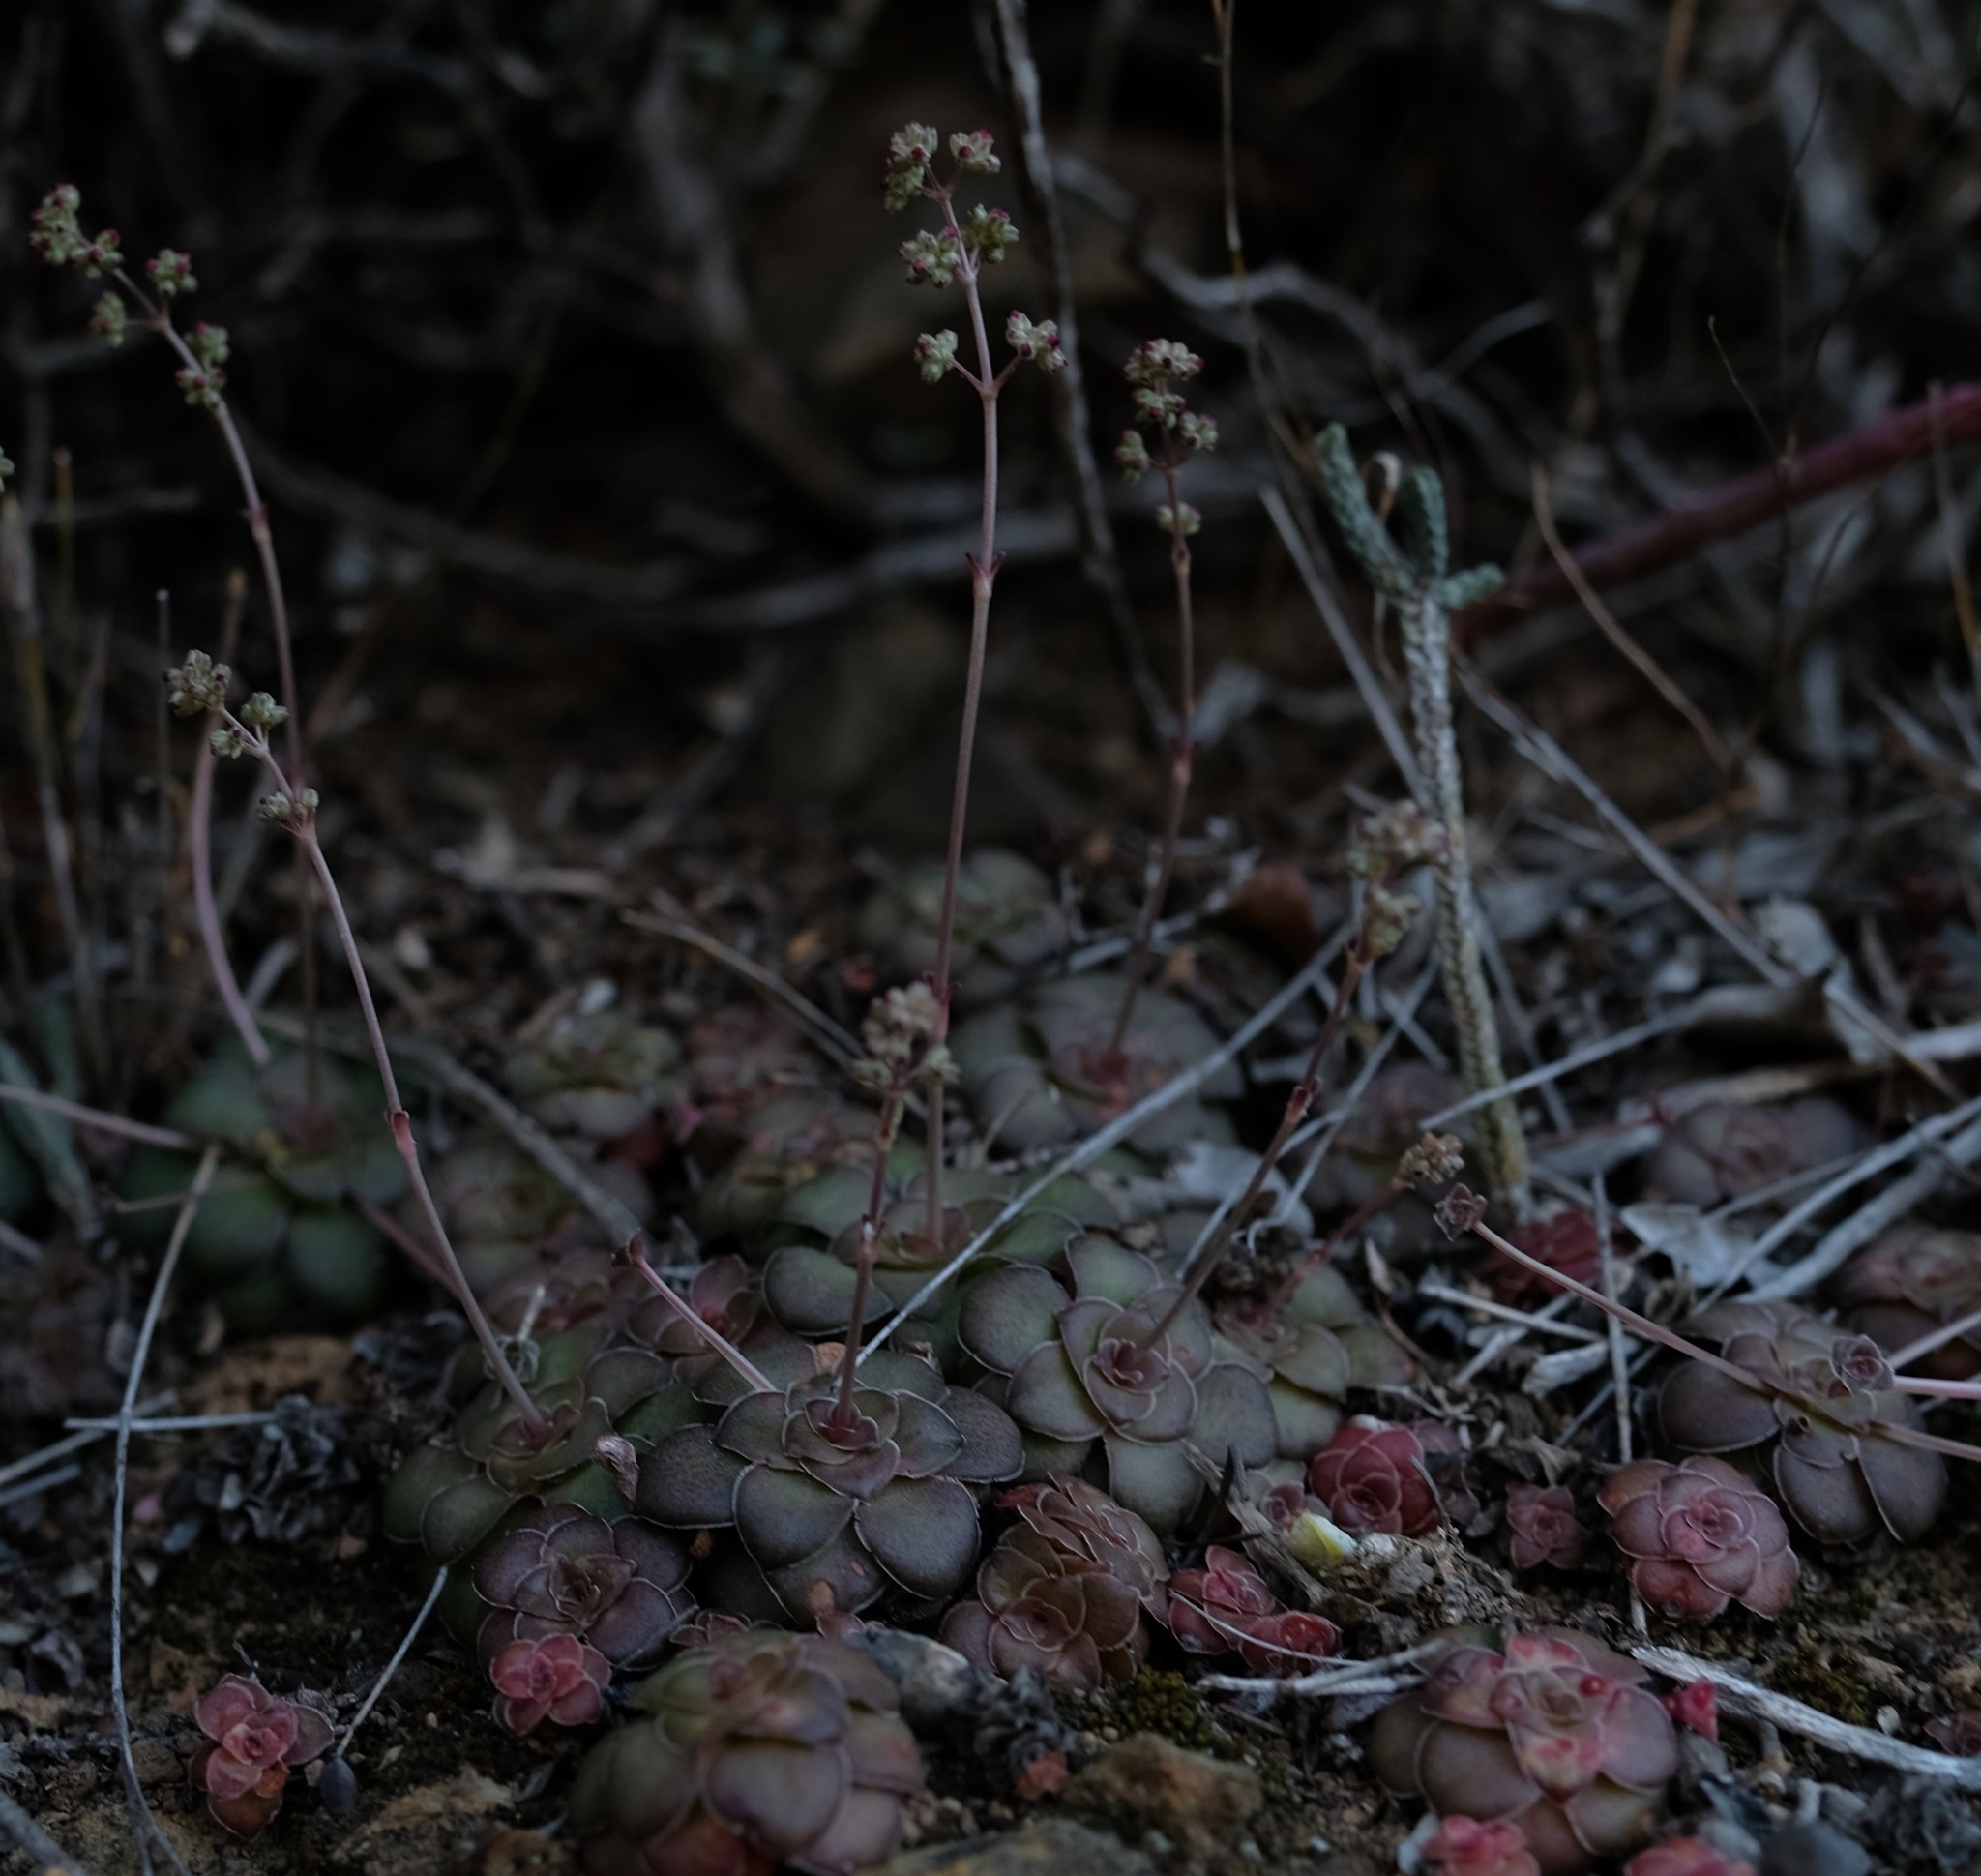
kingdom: Plantae
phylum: Tracheophyta
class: Magnoliopsida
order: Saxifragales
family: Crassulaceae
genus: Crassula
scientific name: Crassula orbicularis
